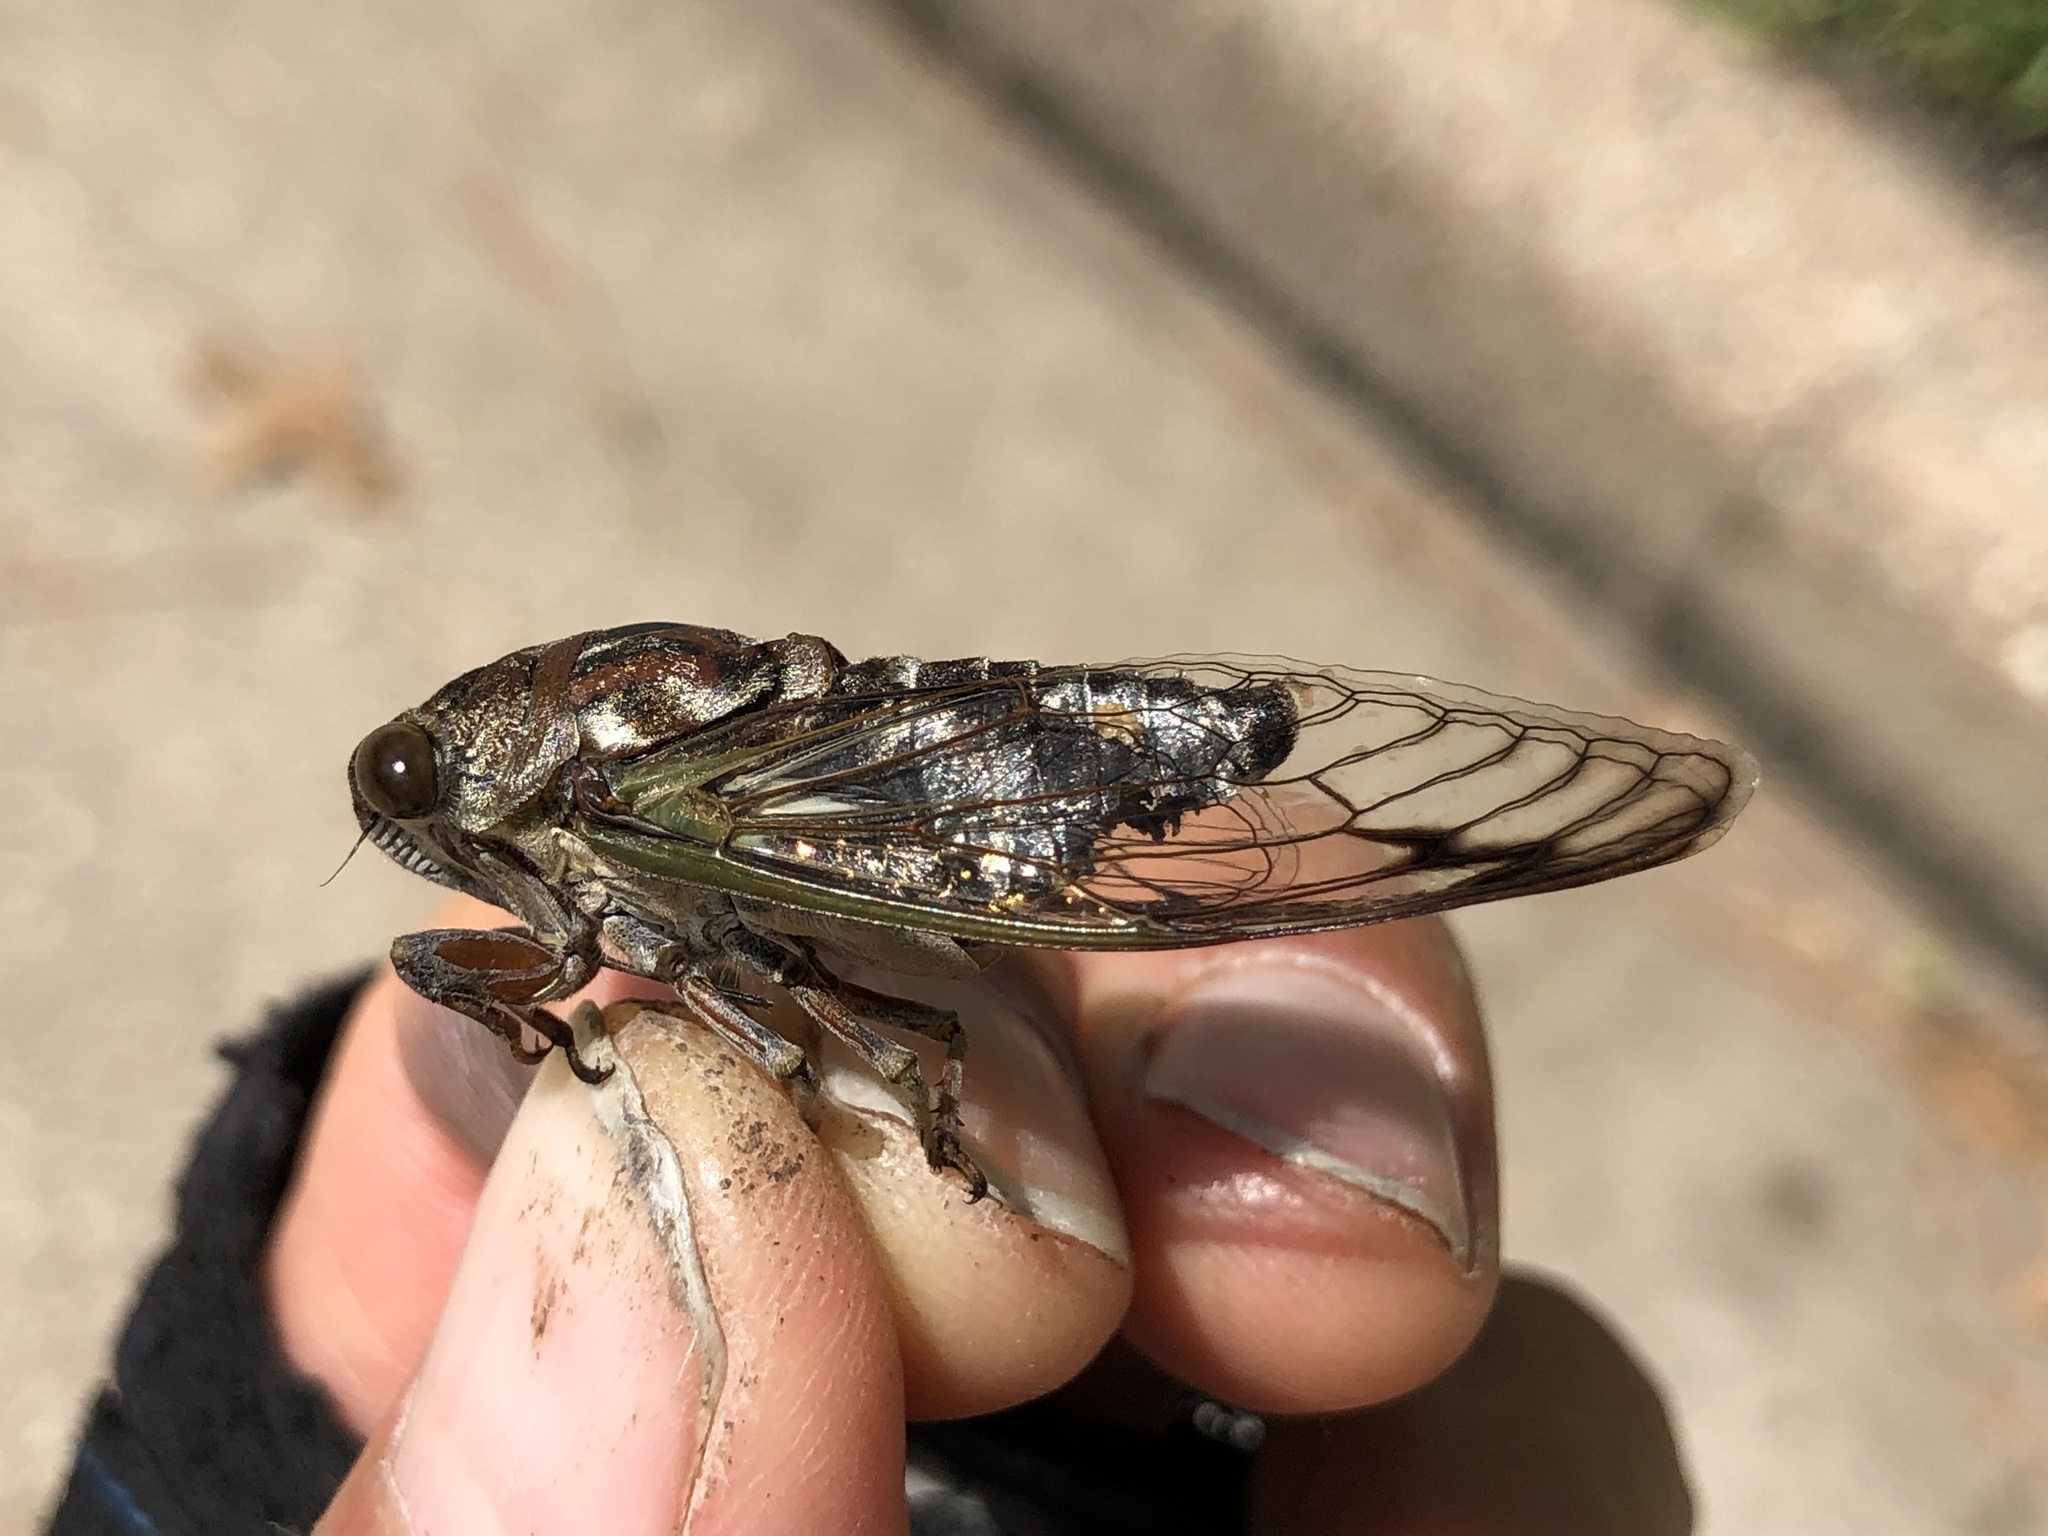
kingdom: Animalia
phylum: Arthropoda
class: Insecta
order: Hemiptera
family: Cicadidae
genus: Neotibicen
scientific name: Neotibicen davisi
